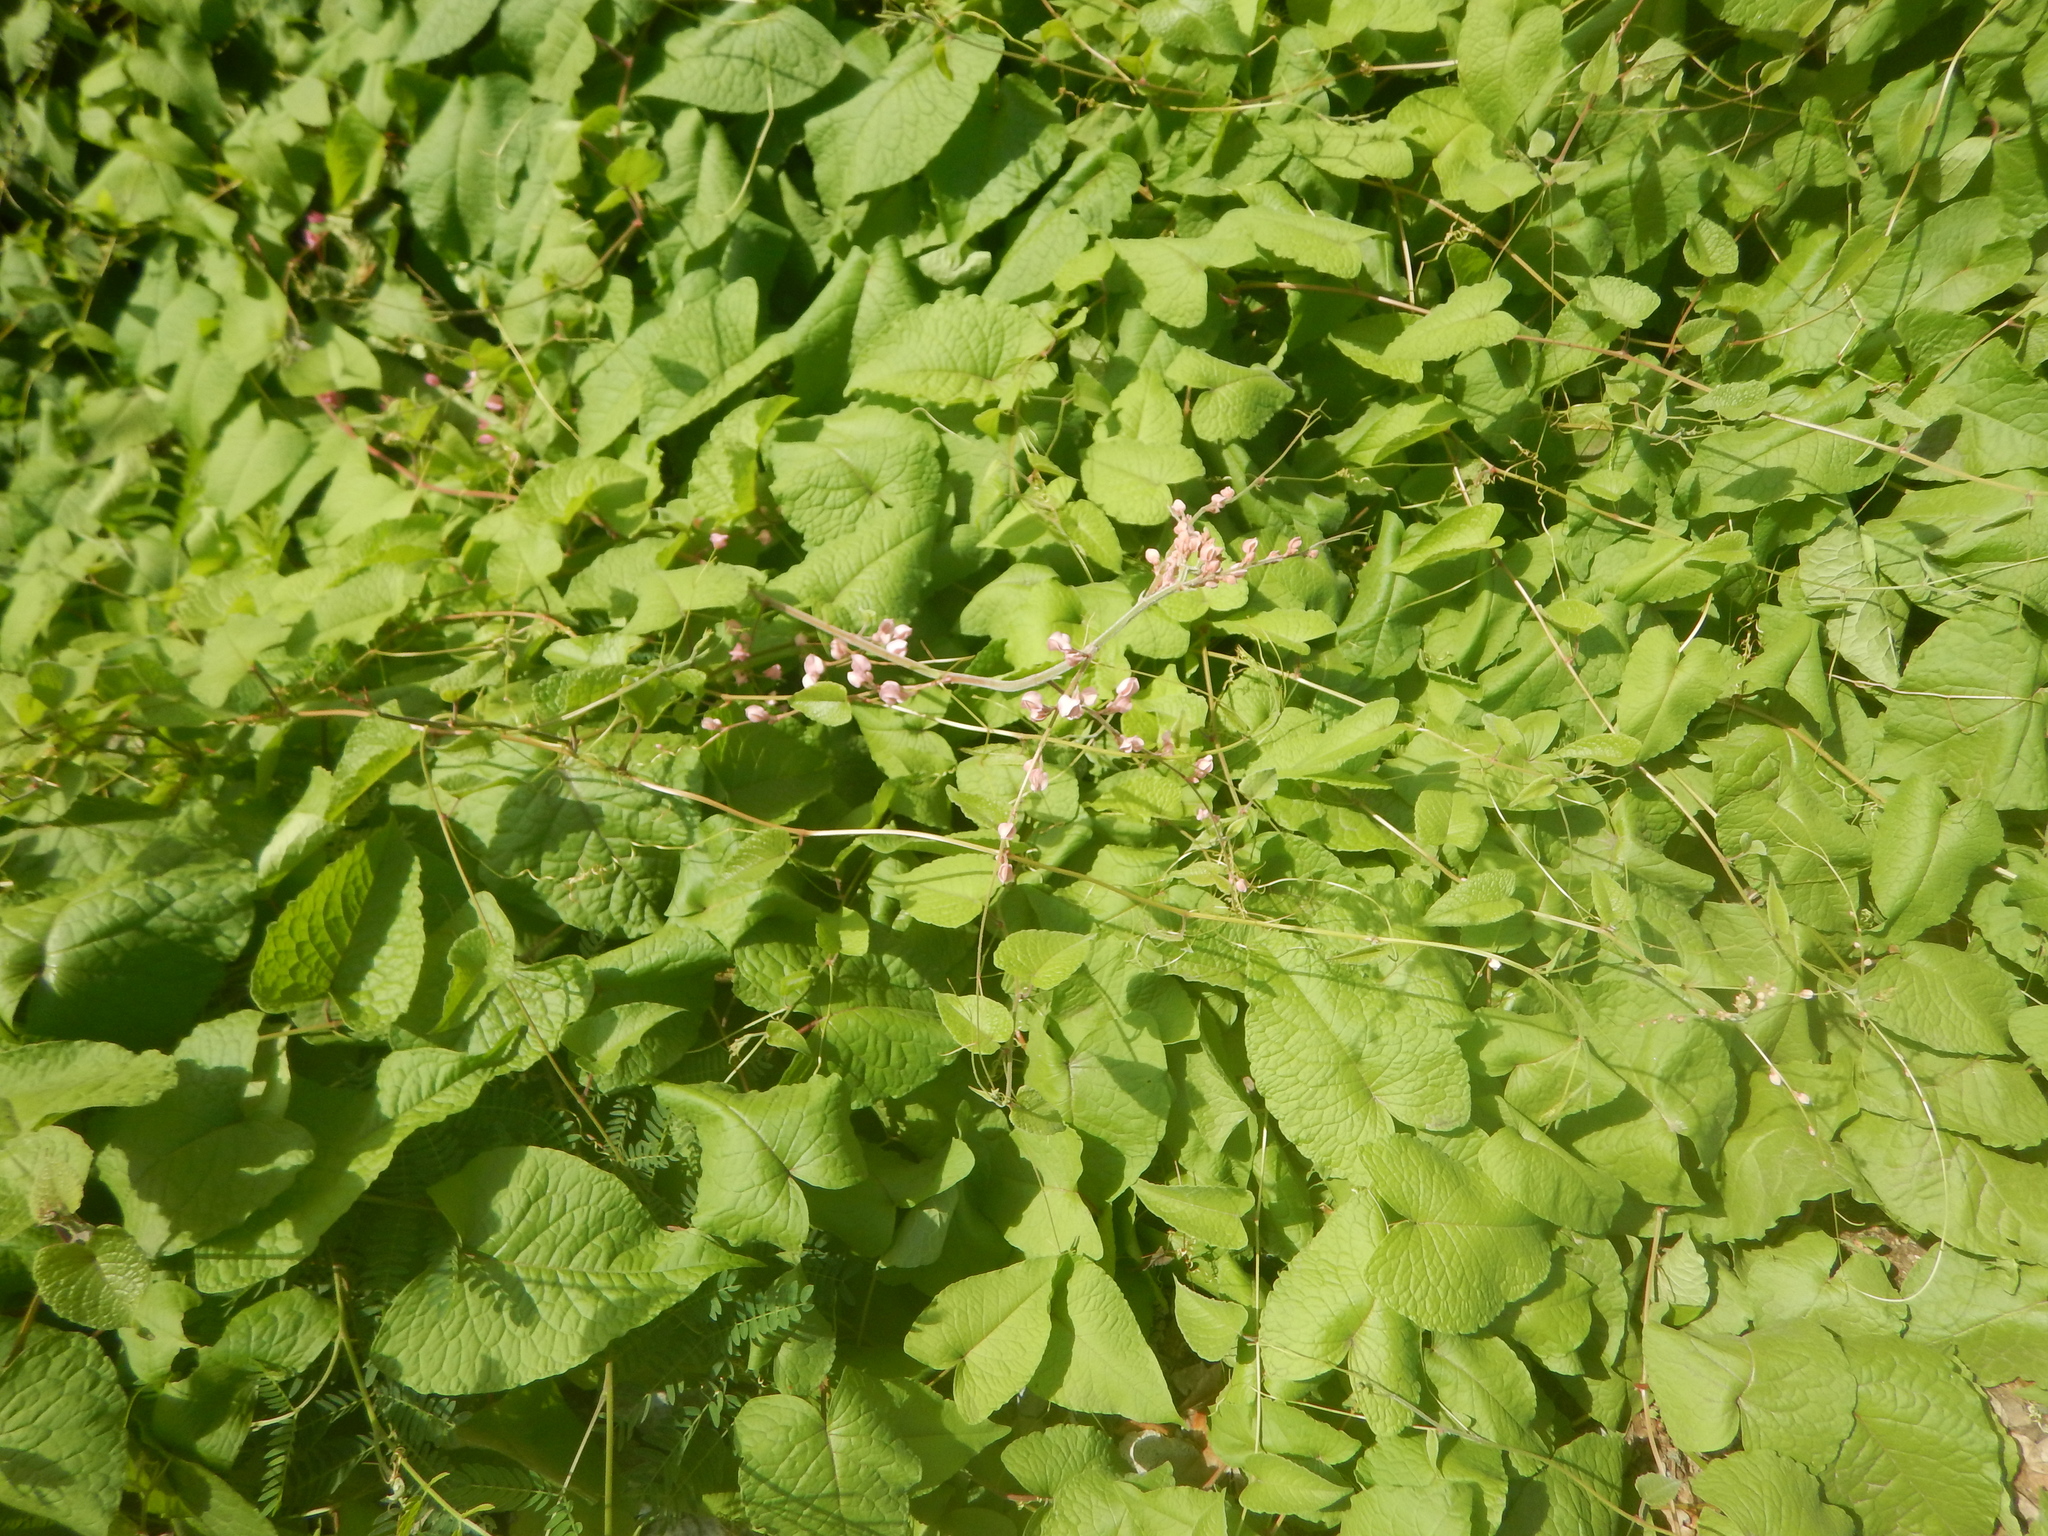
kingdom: Plantae
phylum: Tracheophyta
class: Magnoliopsida
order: Caryophyllales
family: Polygonaceae
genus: Antigonon
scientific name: Antigonon leptopus
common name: Coral vine
